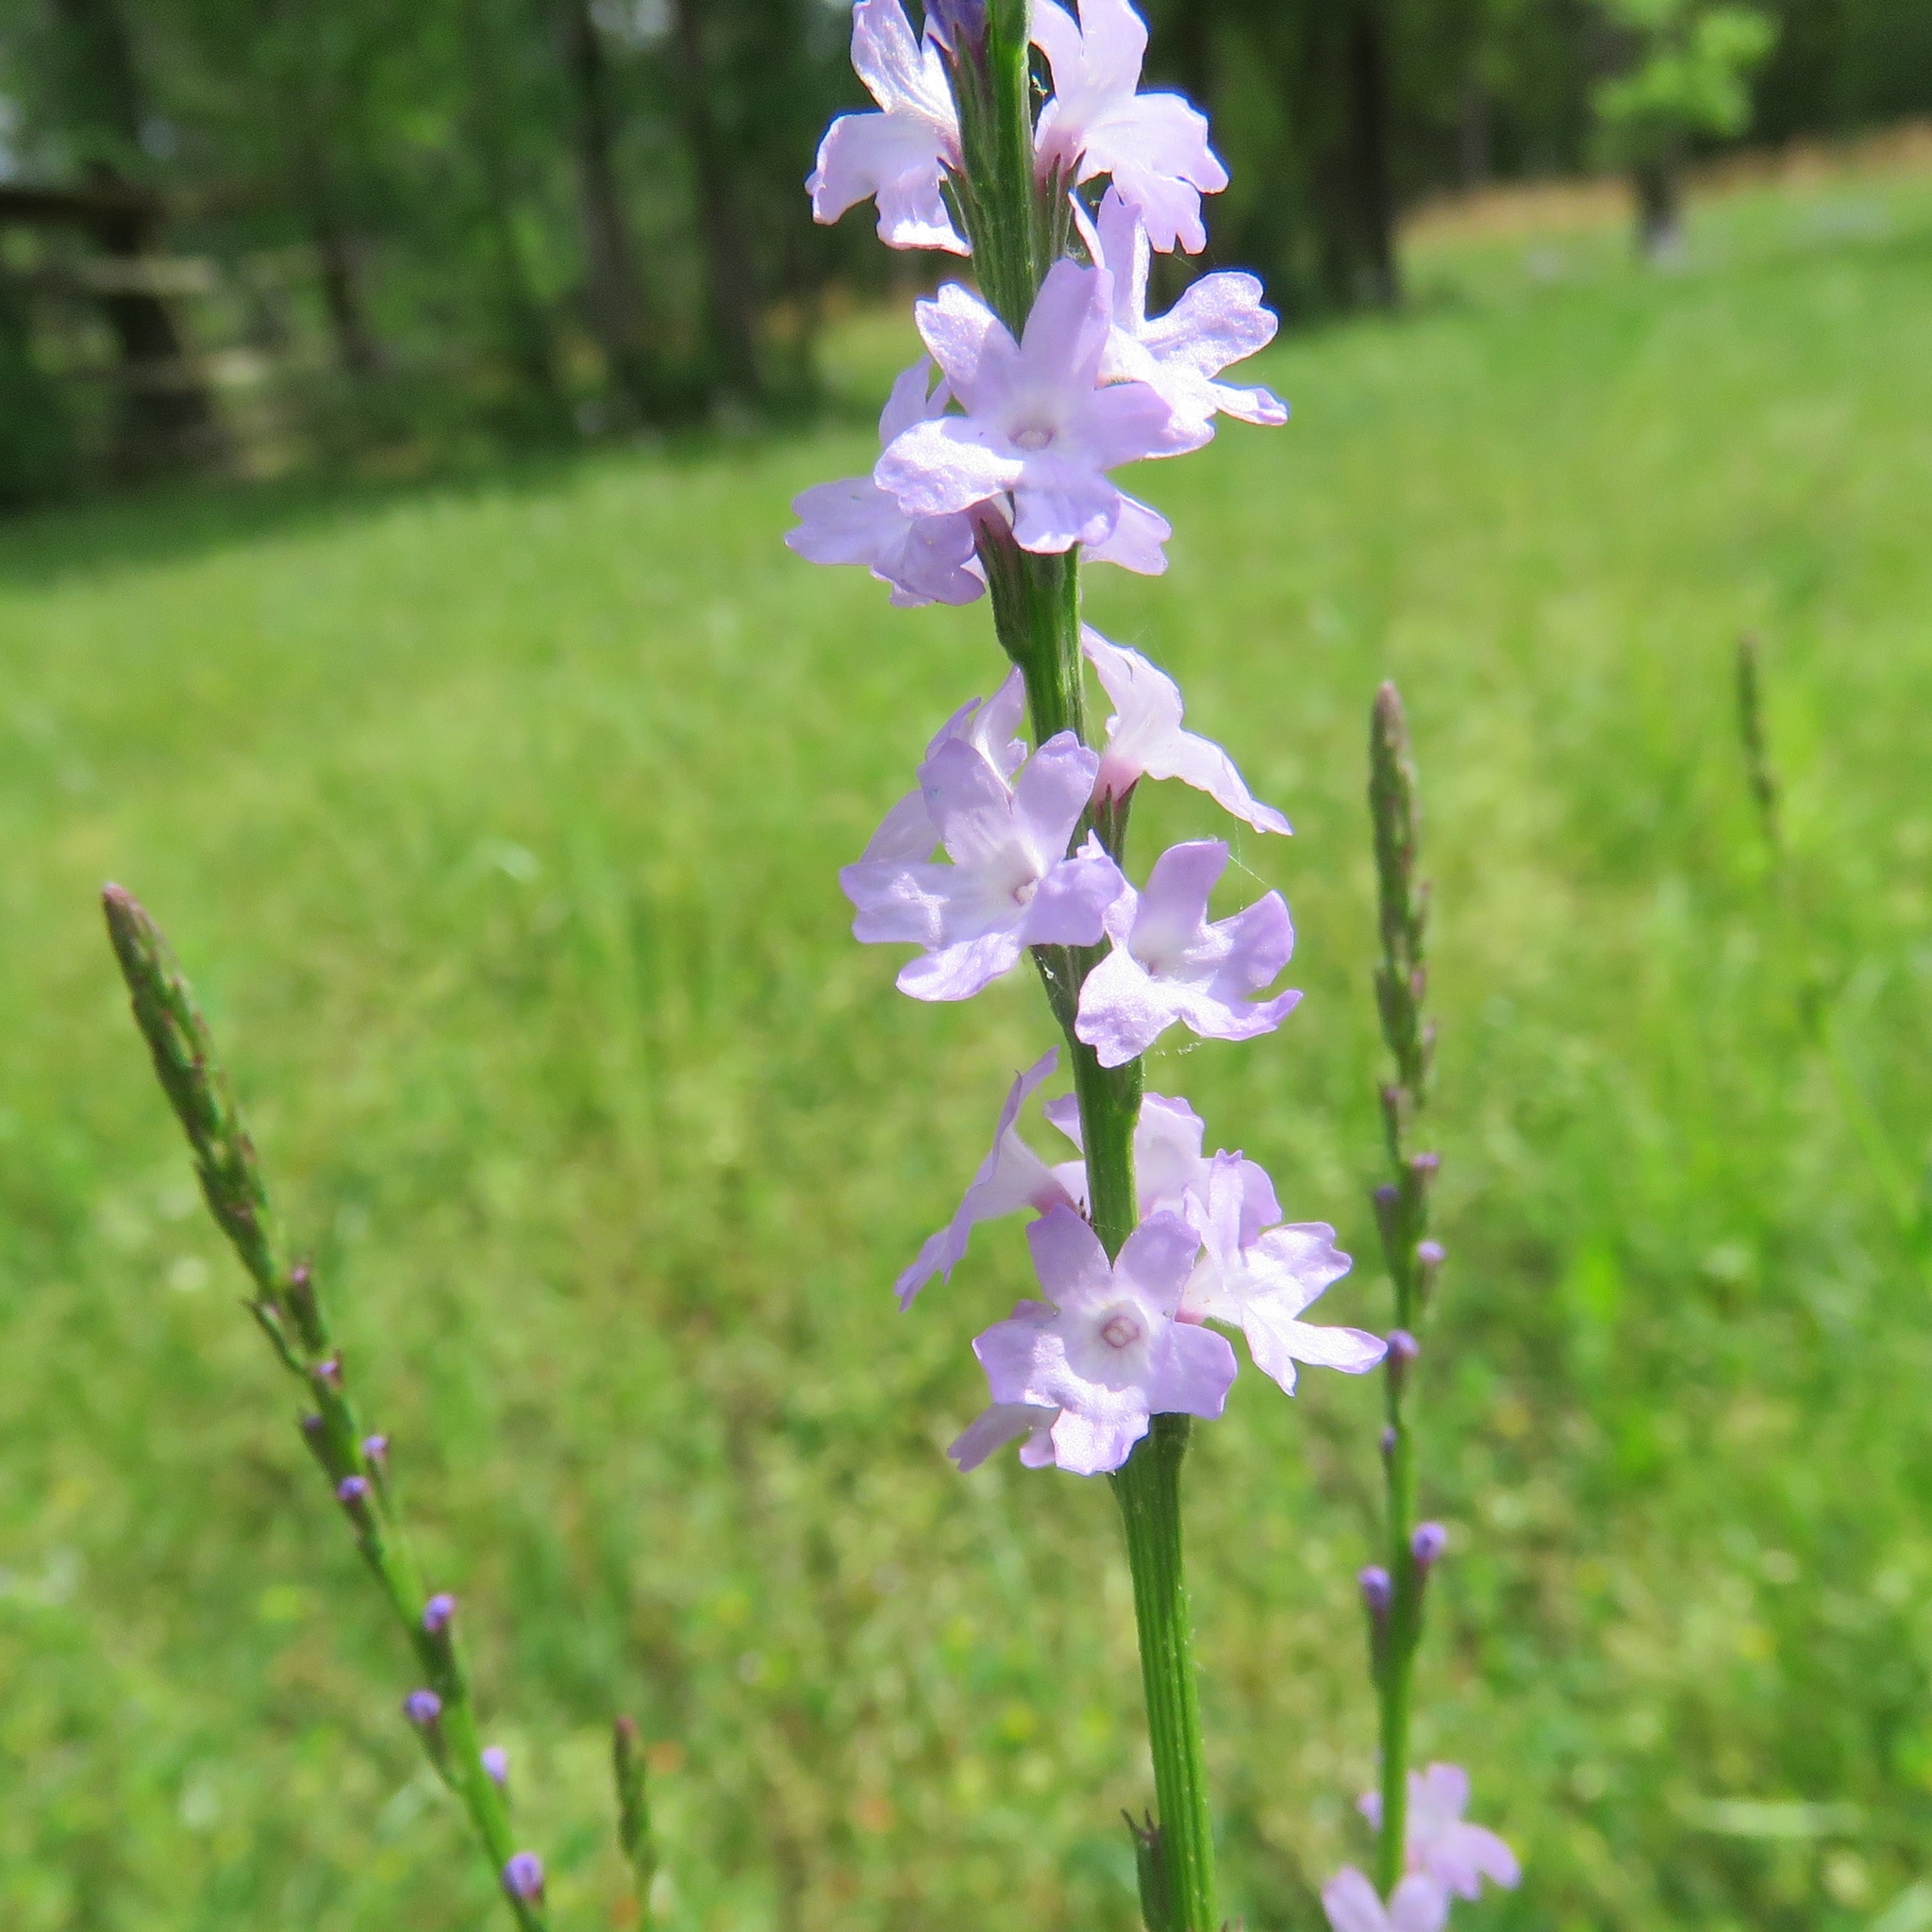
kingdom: Plantae
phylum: Tracheophyta
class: Magnoliopsida
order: Lamiales
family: Verbenaceae
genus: Verbena
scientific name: Verbena halei
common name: Texas vervain
